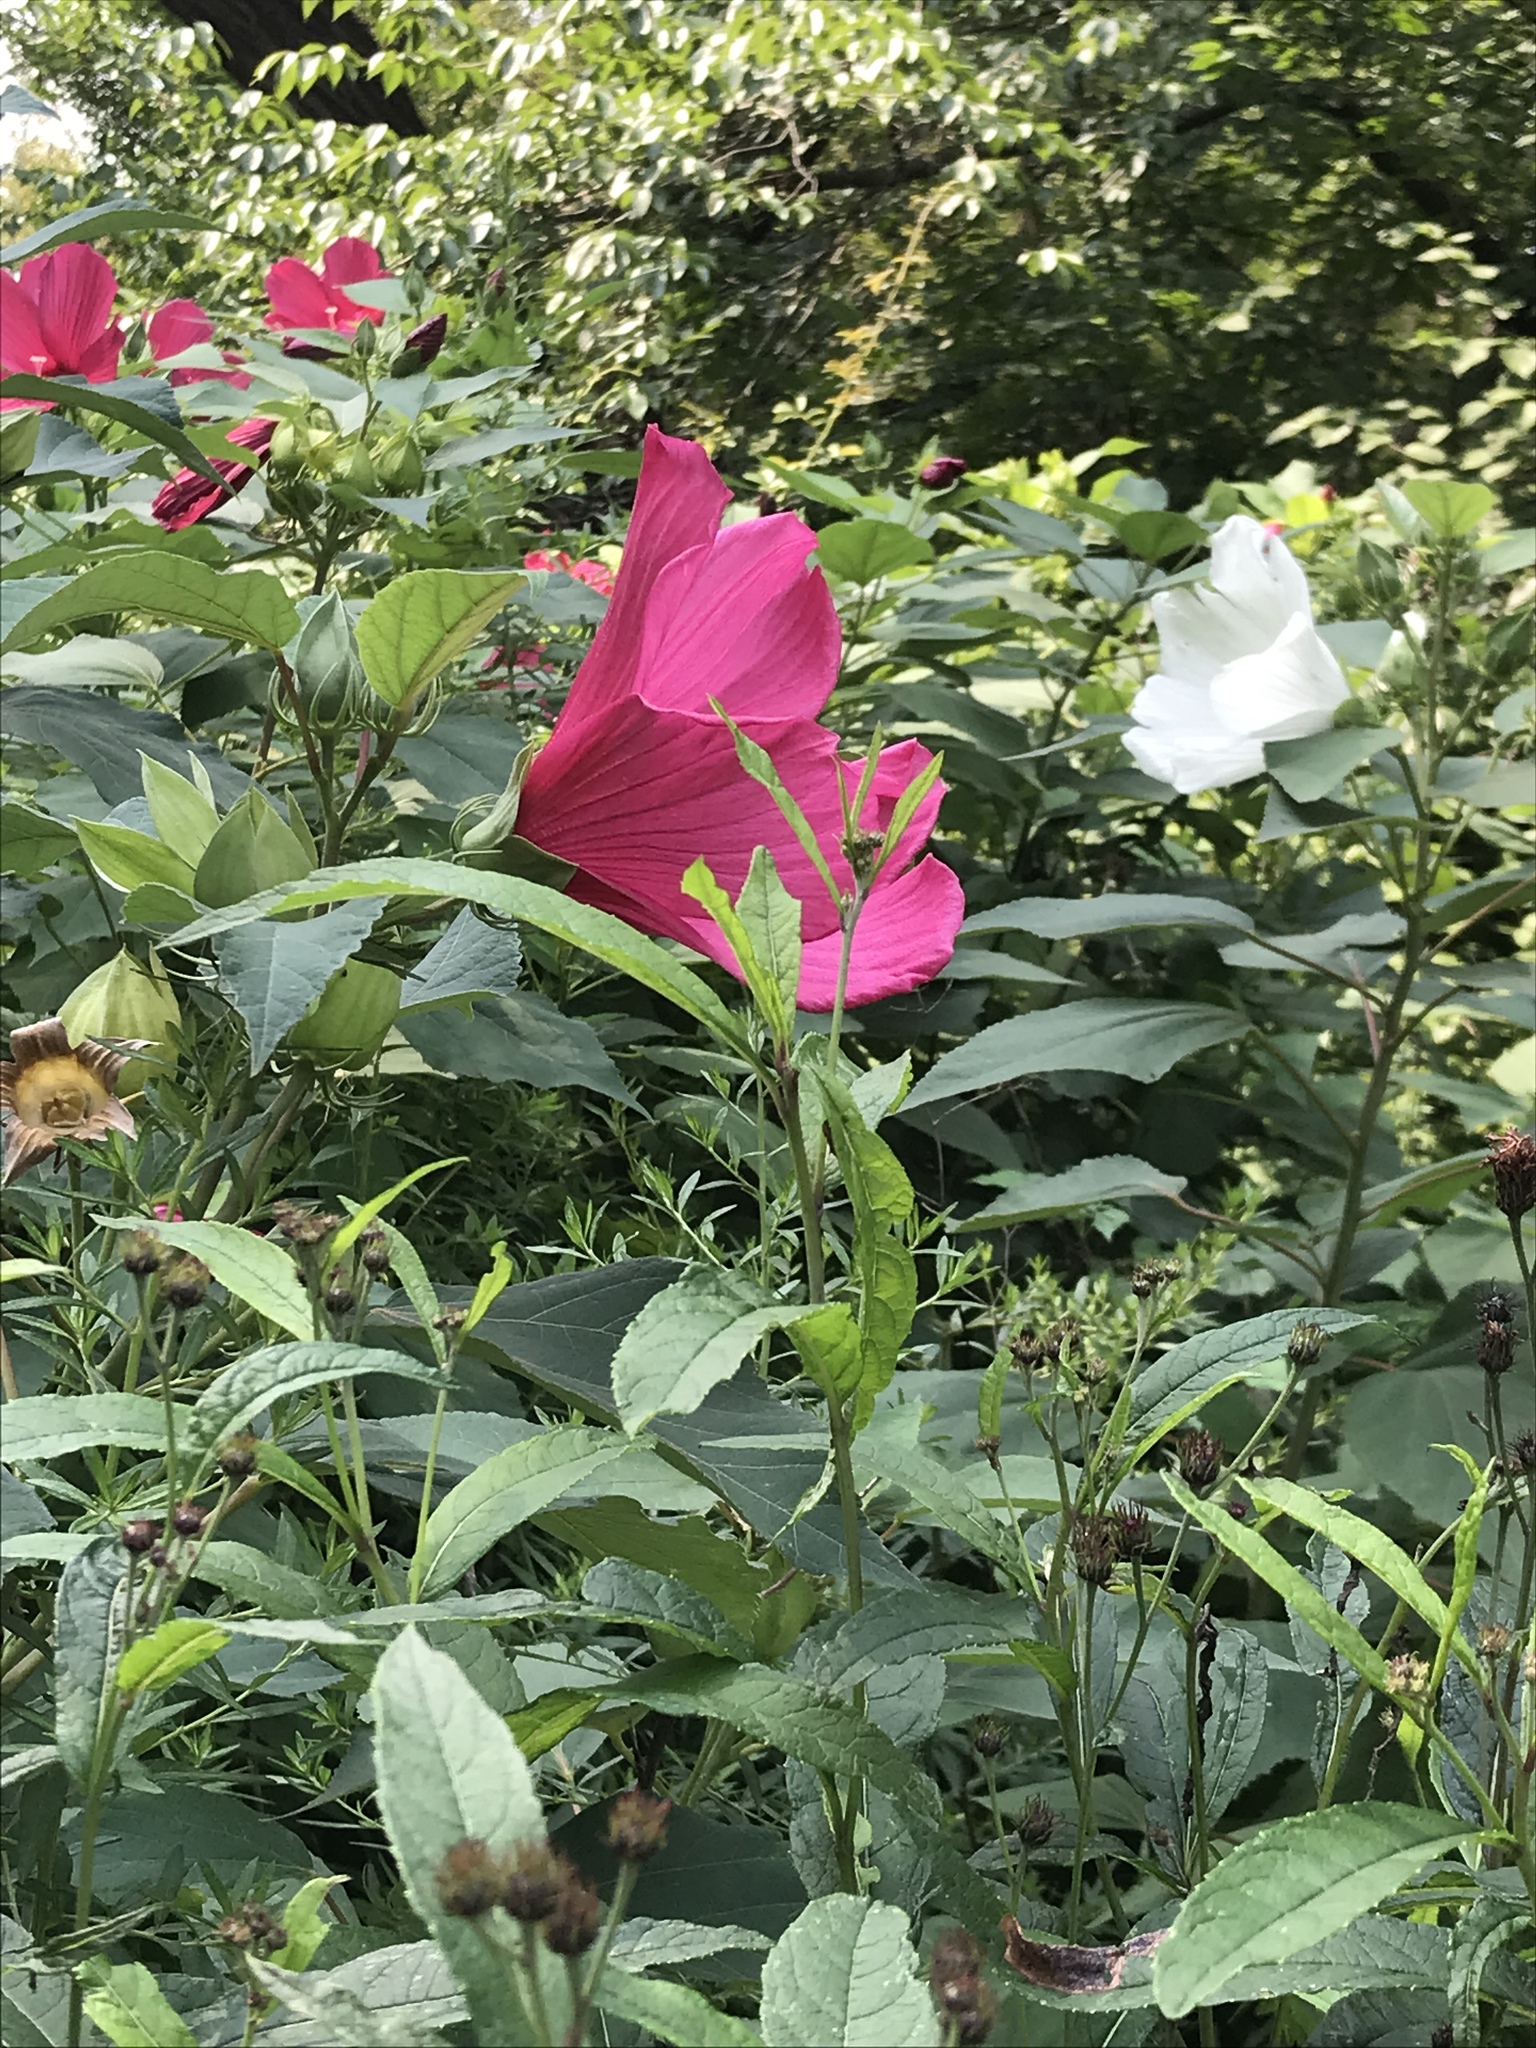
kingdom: Plantae
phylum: Tracheophyta
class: Magnoliopsida
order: Malvales
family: Malvaceae
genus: Hibiscus
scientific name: Hibiscus moscheutos
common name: Common rose-mallow
